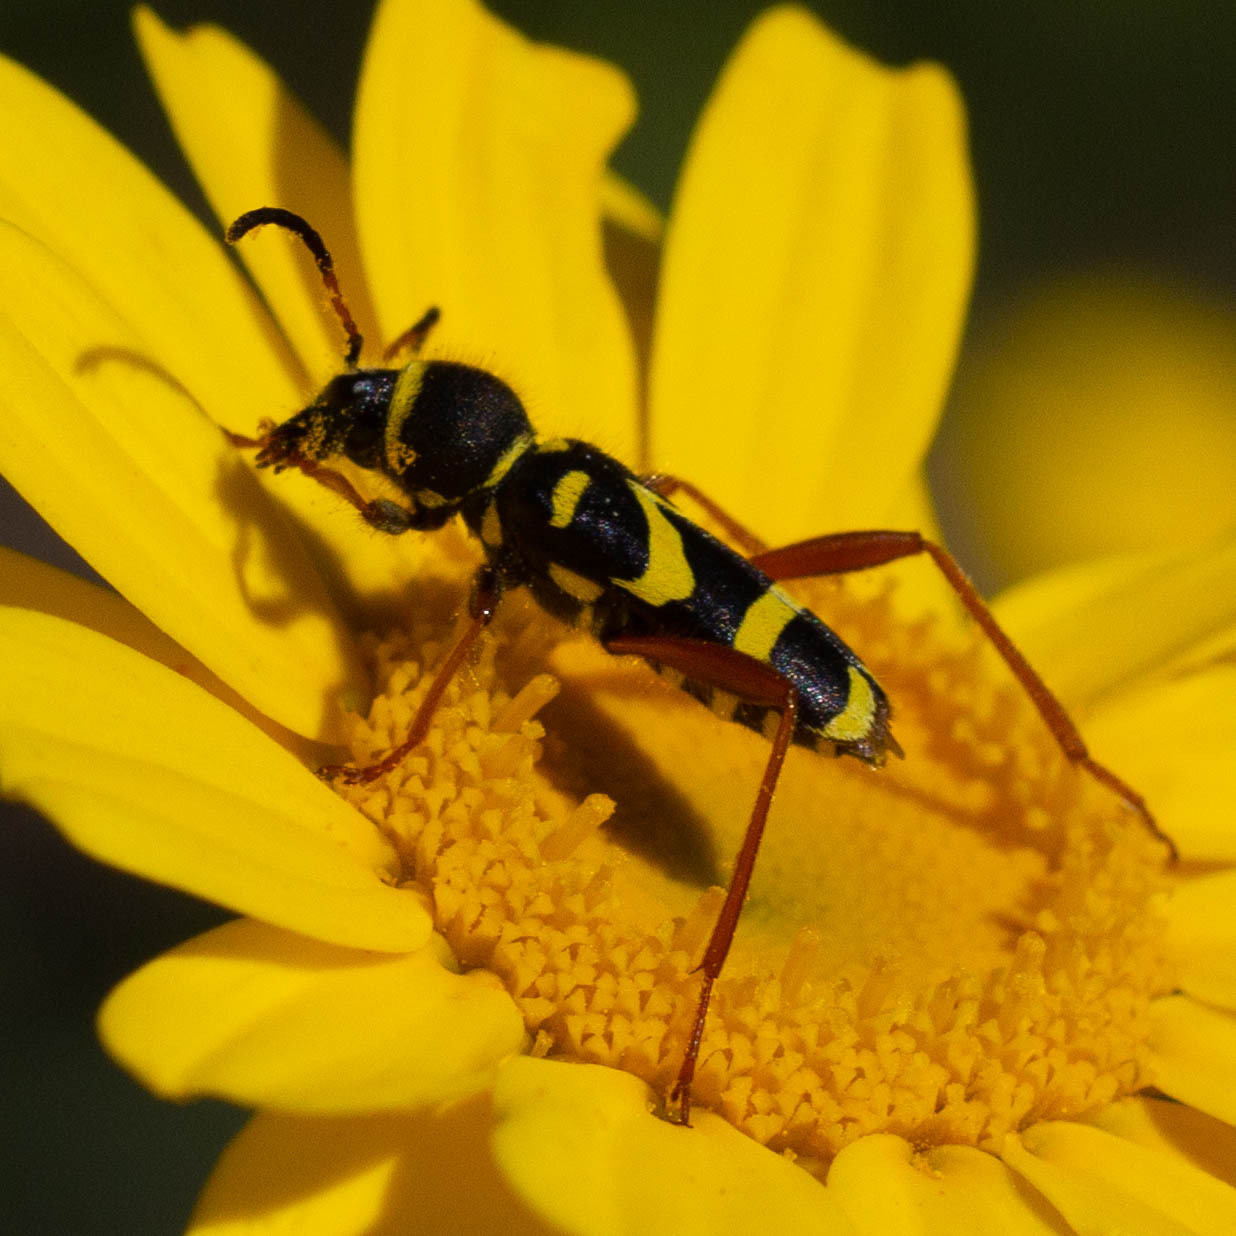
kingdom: Animalia
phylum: Arthropoda
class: Insecta
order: Coleoptera
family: Cerambycidae
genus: Clytus
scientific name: Clytus arietis
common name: Wasp beetle
